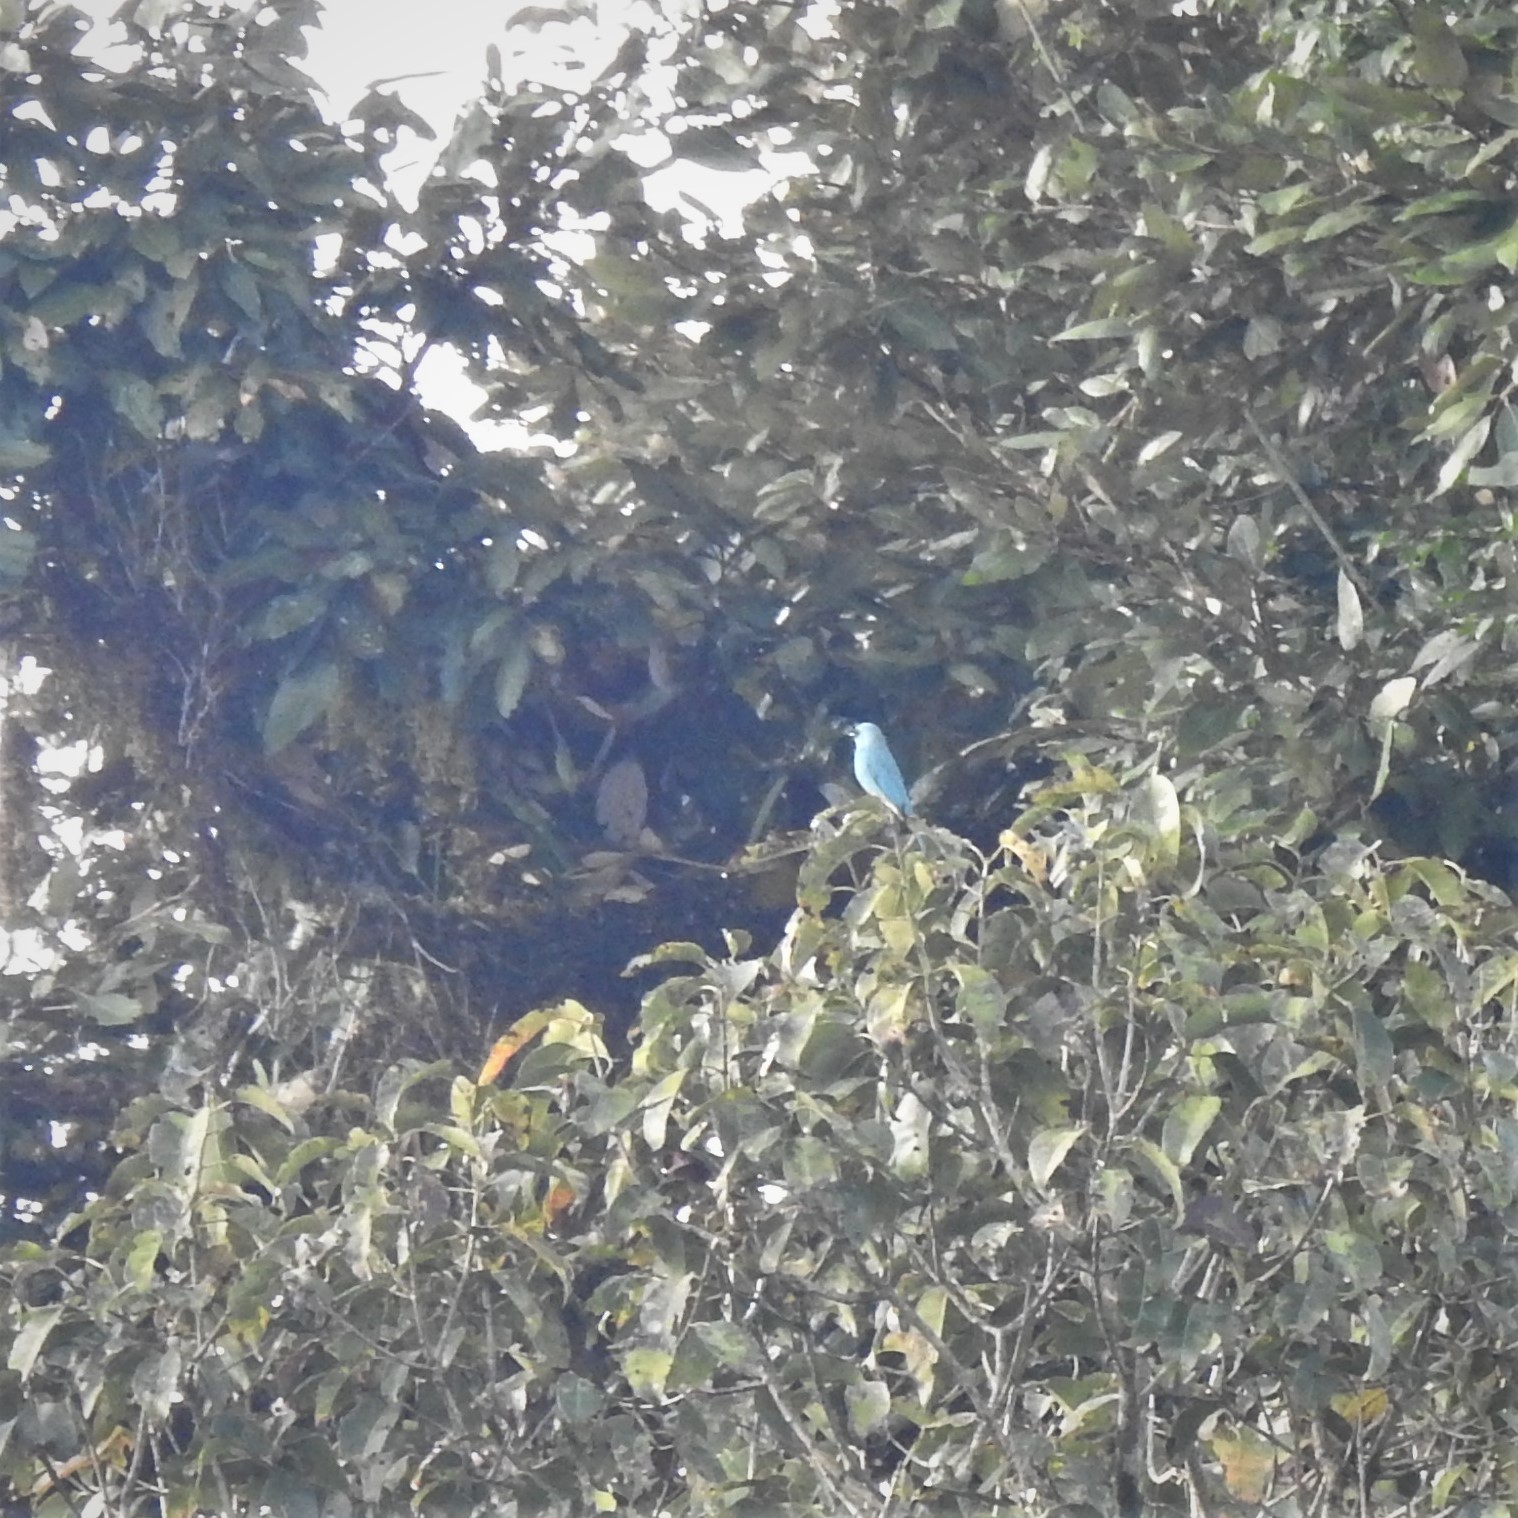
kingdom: Animalia
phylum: Chordata
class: Aves
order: Passeriformes
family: Muscicapidae
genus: Eumyias
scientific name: Eumyias thalassinus
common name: Verditer flycatcher
